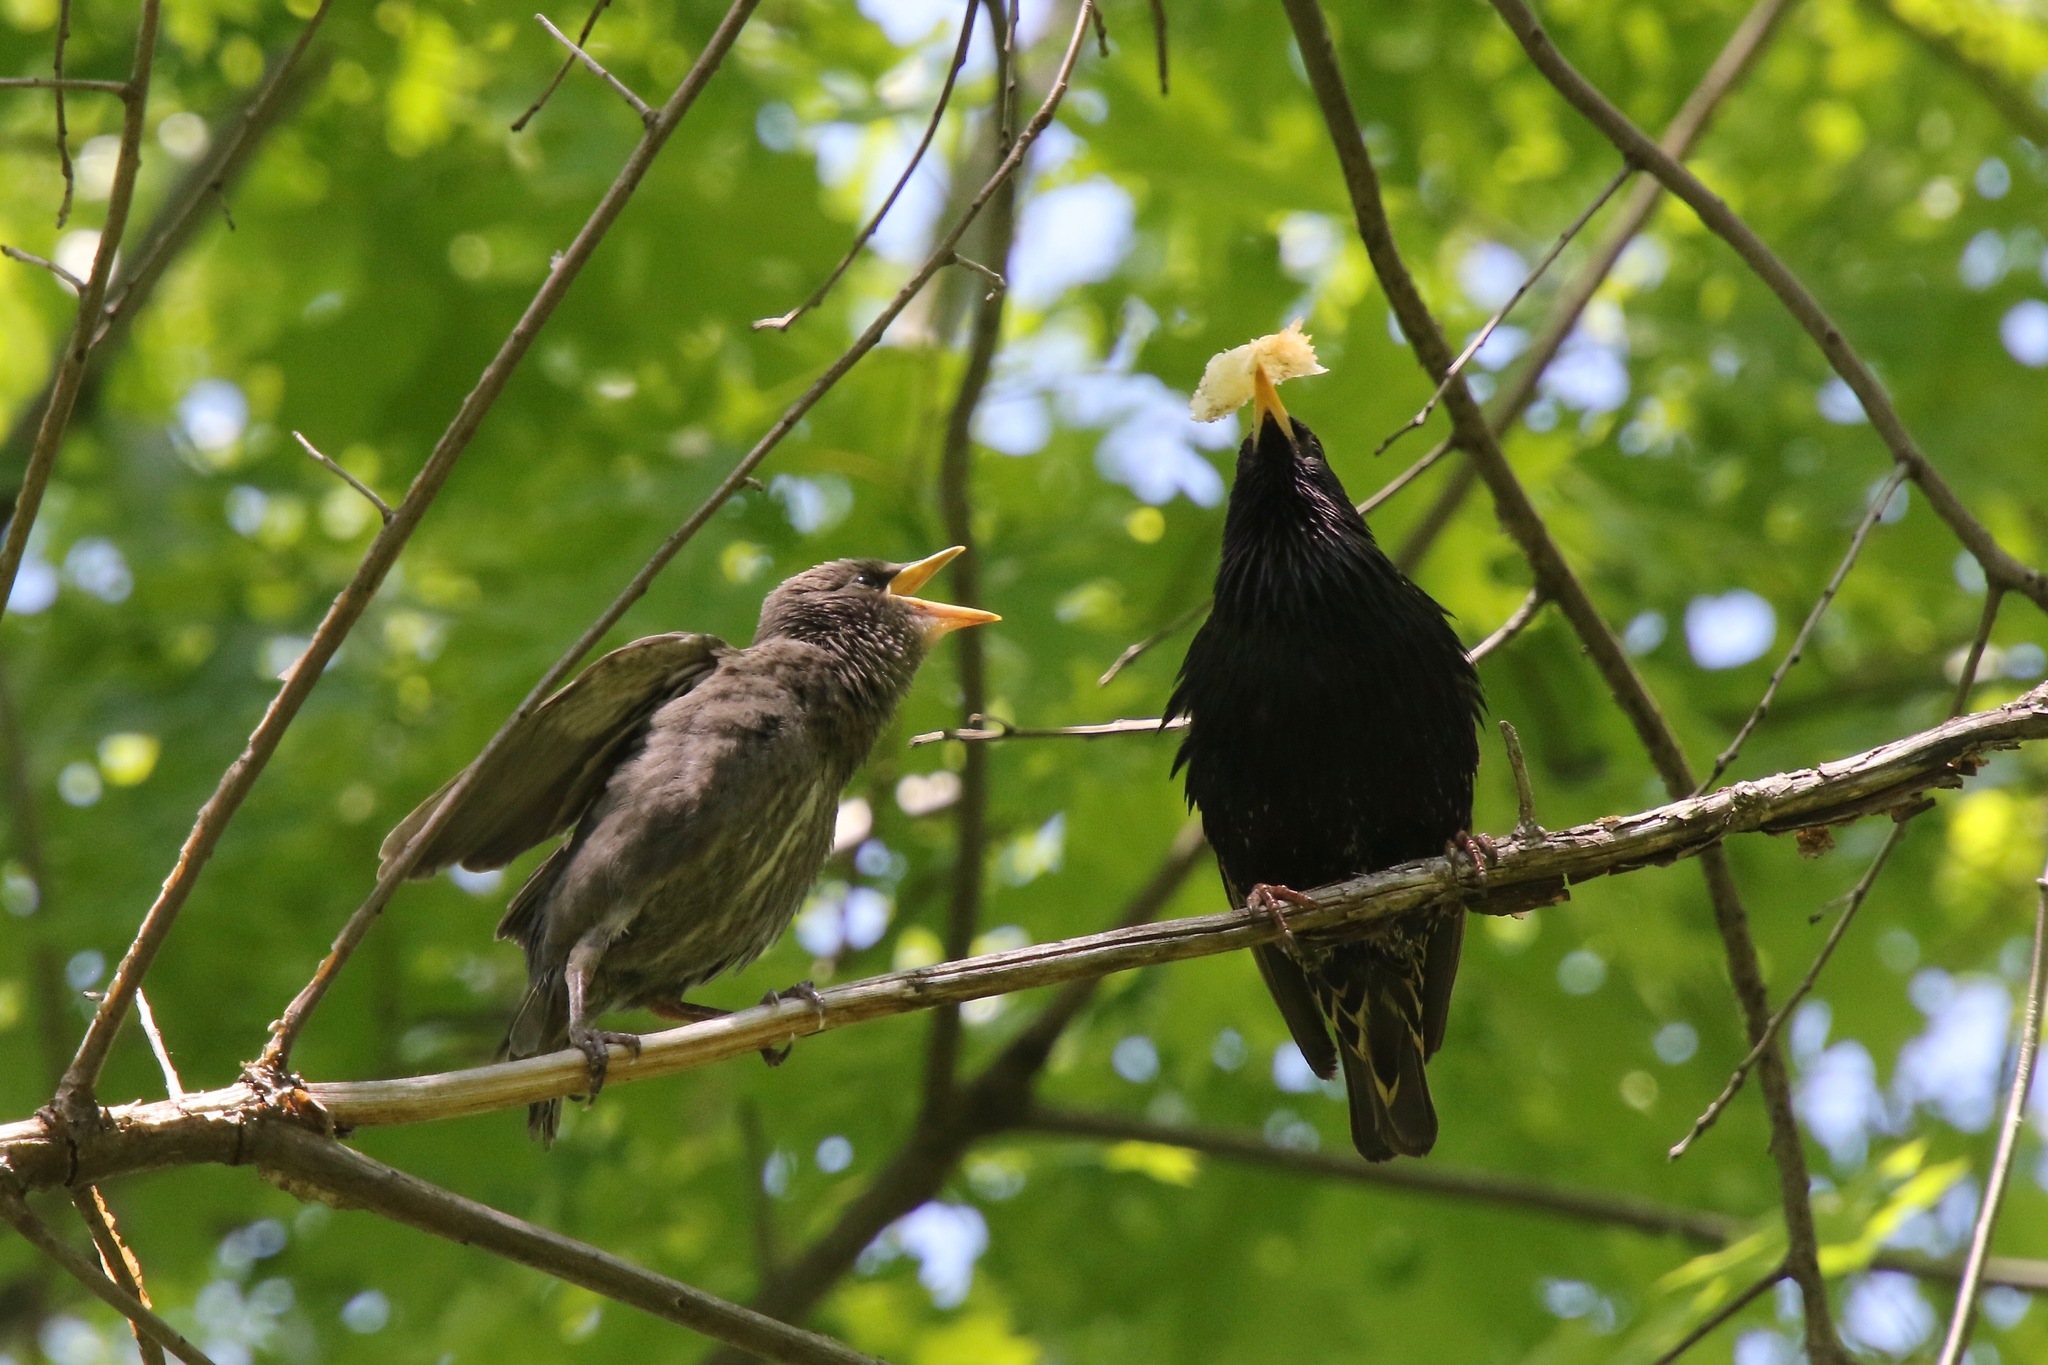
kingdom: Animalia
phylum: Chordata
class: Aves
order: Passeriformes
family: Sturnidae
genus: Sturnus
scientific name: Sturnus vulgaris
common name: Common starling
